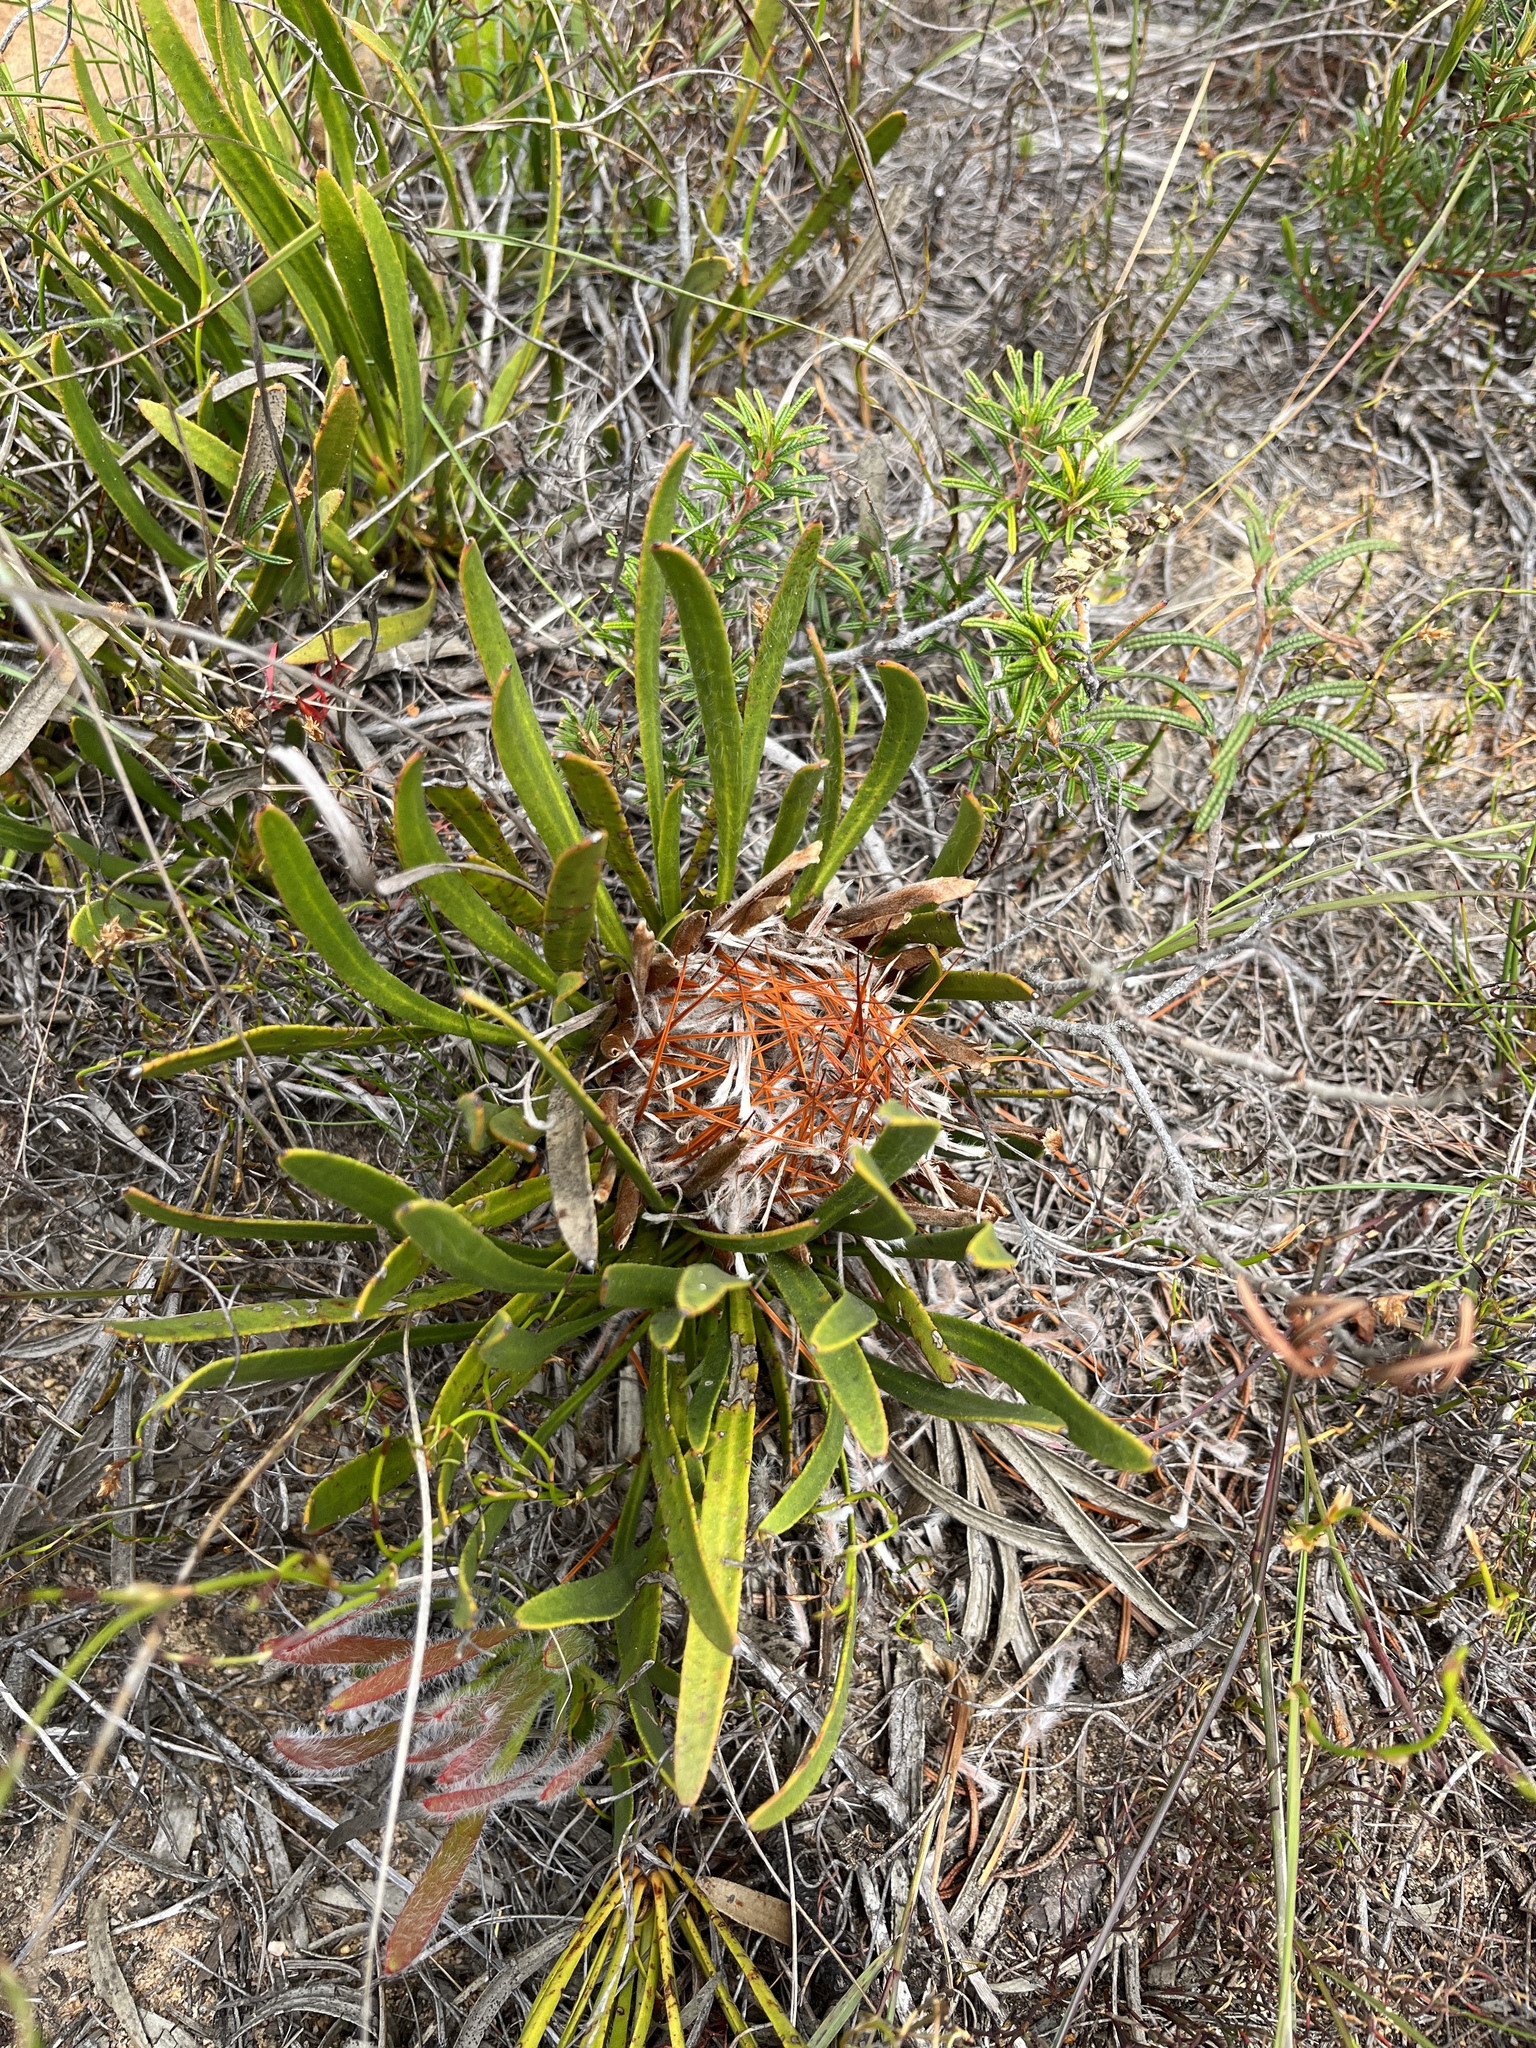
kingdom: Plantae
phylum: Tracheophyta
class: Magnoliopsida
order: Proteales
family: Proteaceae
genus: Protea
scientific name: Protea aspera
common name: Rough-leaf sugarbush
